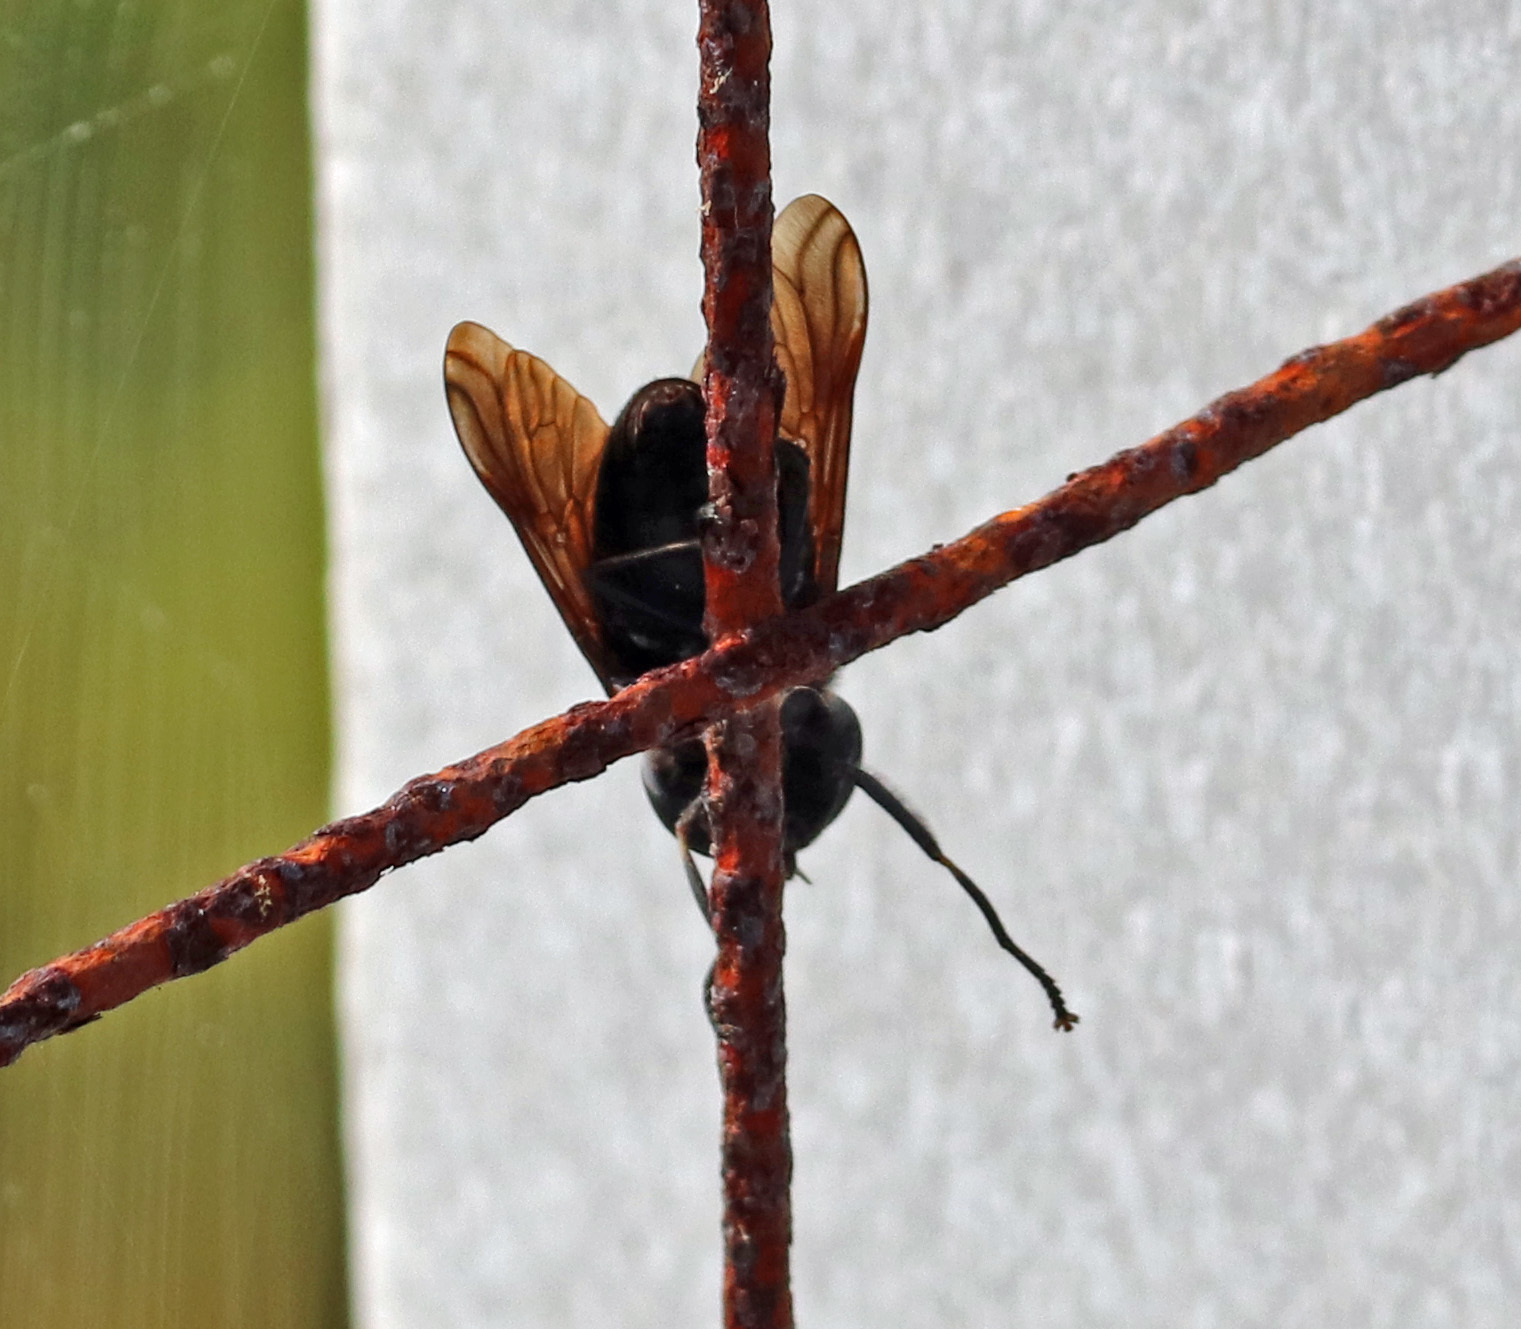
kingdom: Animalia
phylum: Arthropoda
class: Insecta
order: Diptera
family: Tabanidae
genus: Tabanus
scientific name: Tabanus atratus
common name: Black horse fly
